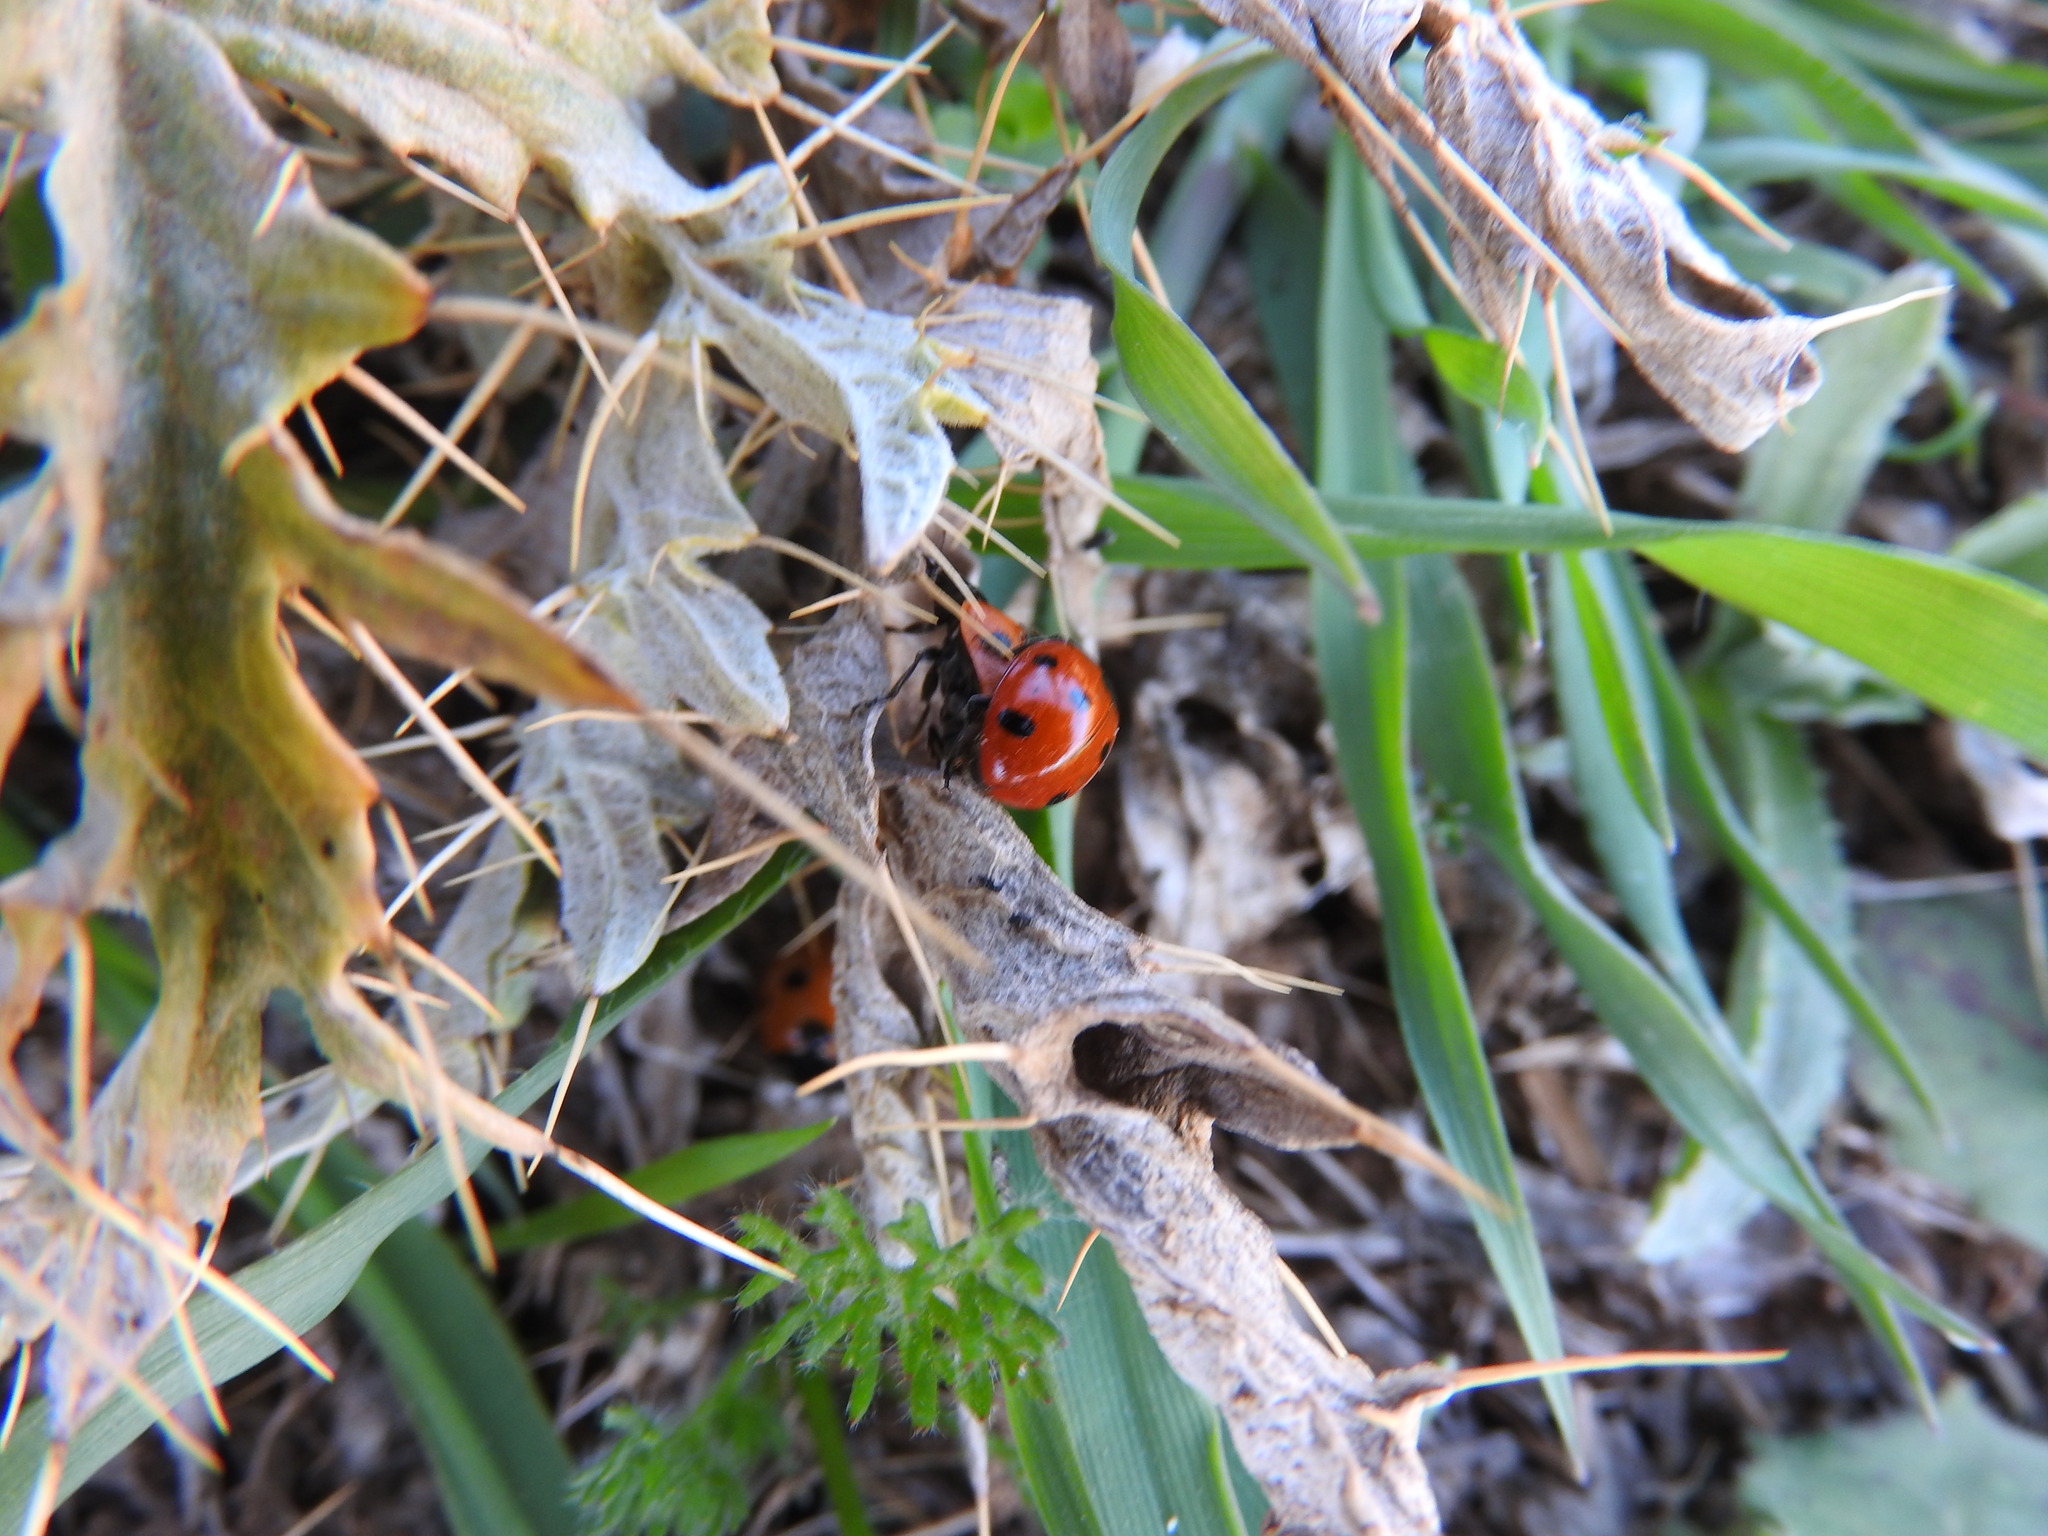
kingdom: Animalia
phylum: Arthropoda
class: Insecta
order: Coleoptera
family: Coccinellidae
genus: Coccinella
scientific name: Coccinella algerica
